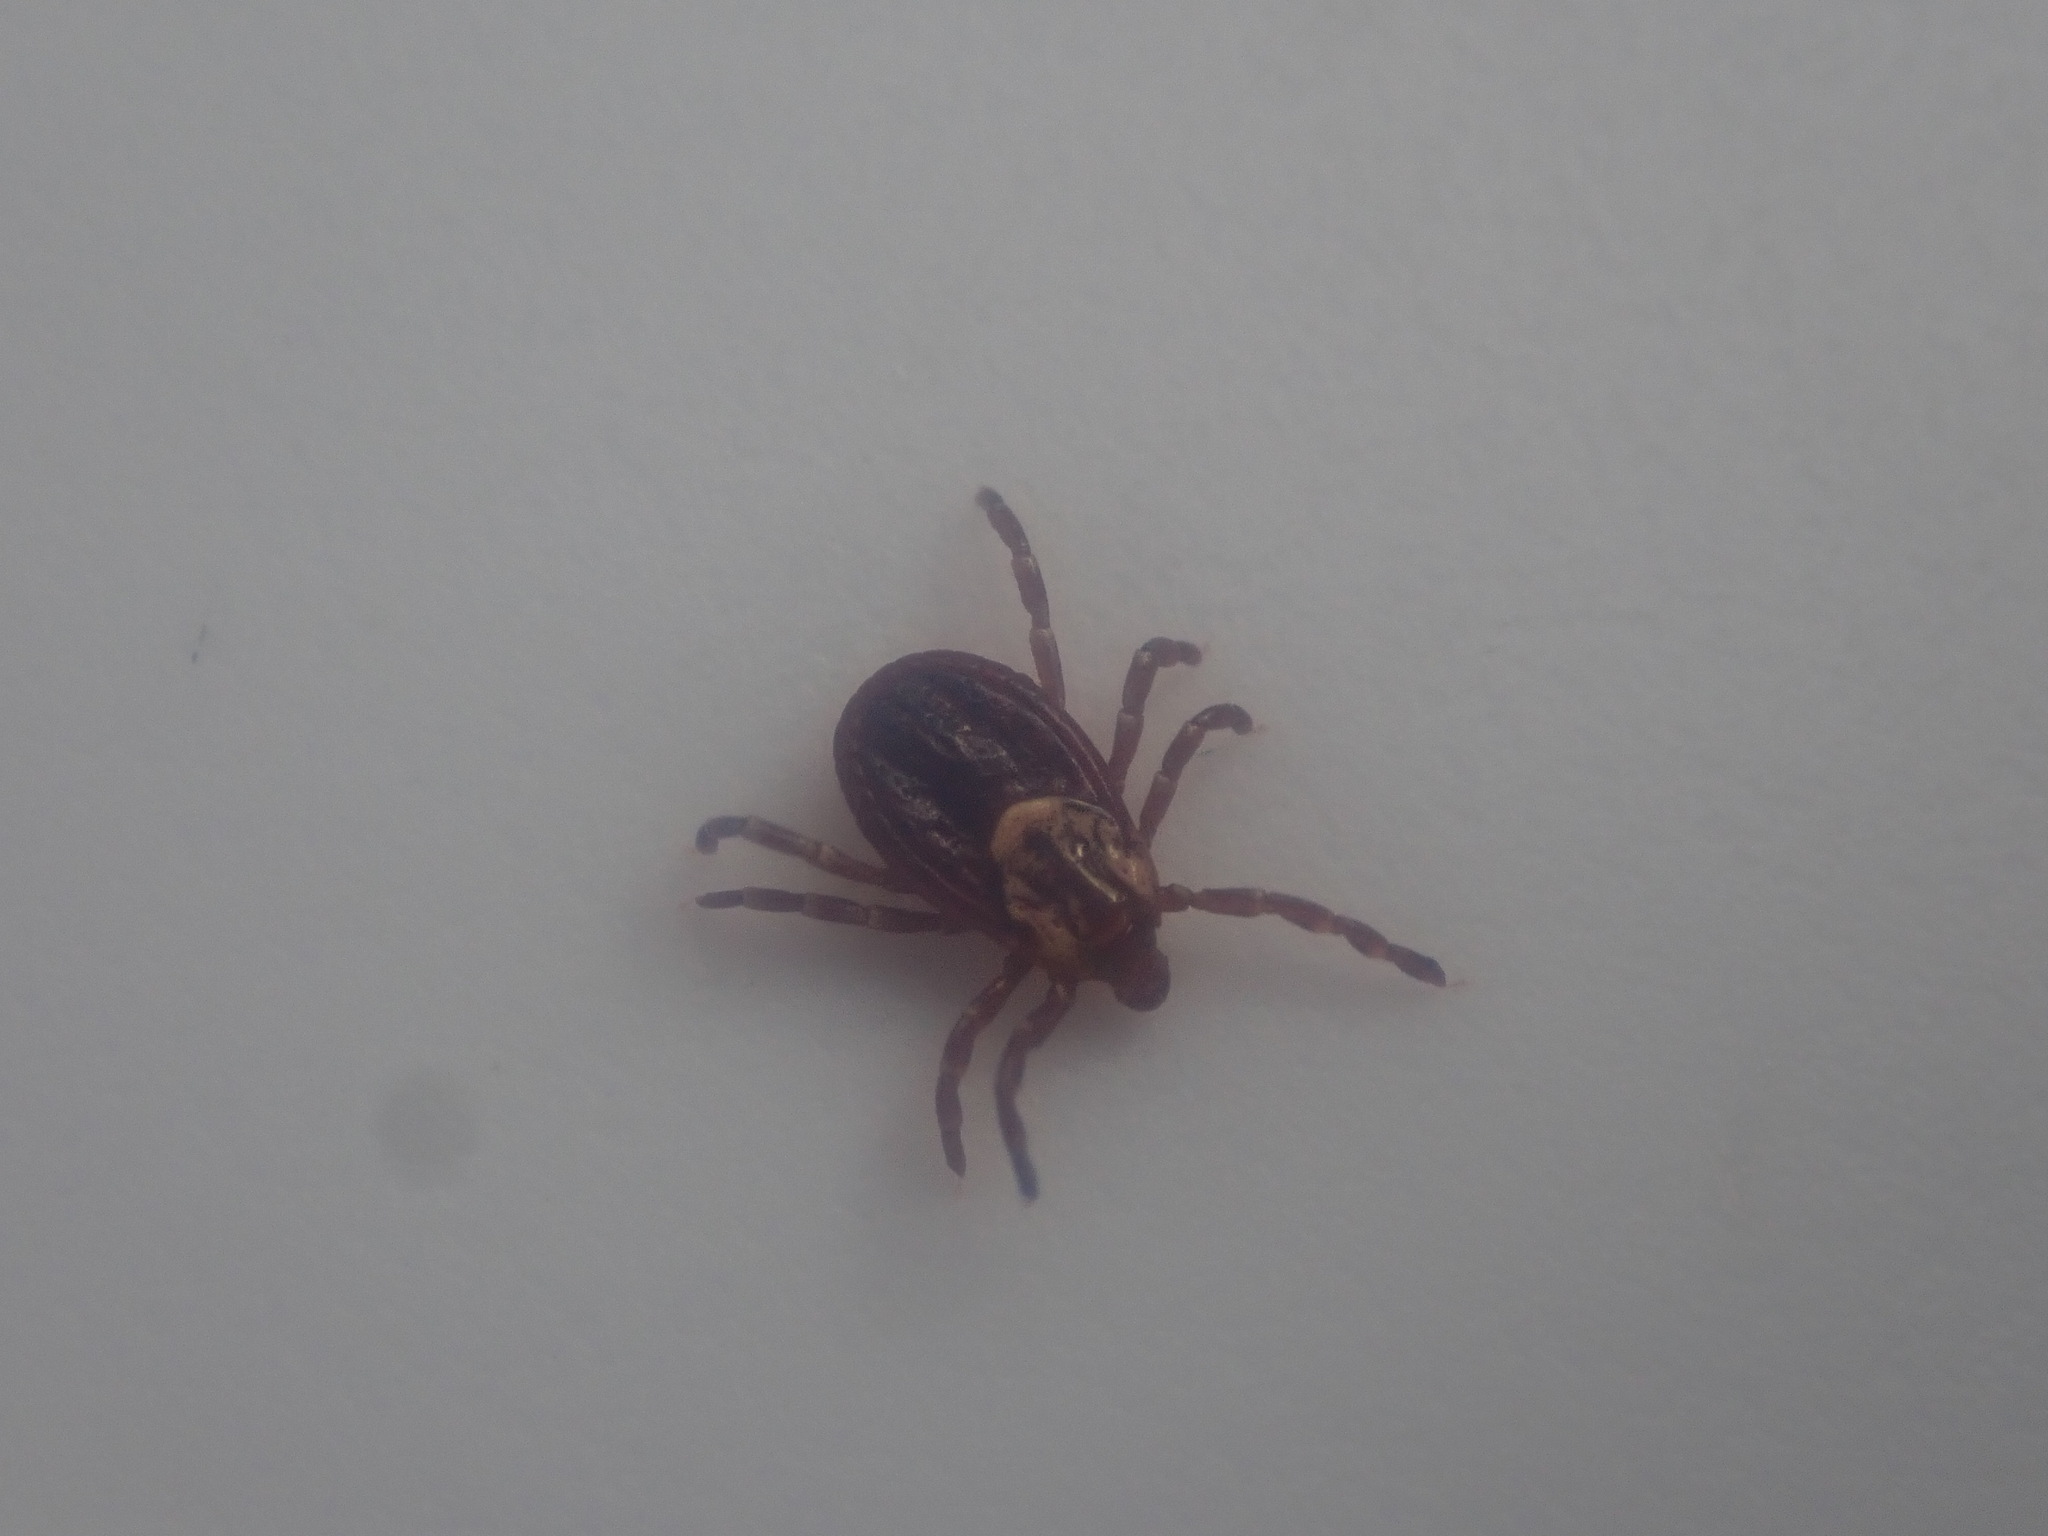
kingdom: Animalia
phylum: Arthropoda
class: Arachnida
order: Ixodida
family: Ixodidae
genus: Dermacentor
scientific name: Dermacentor variabilis
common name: American dog tick
